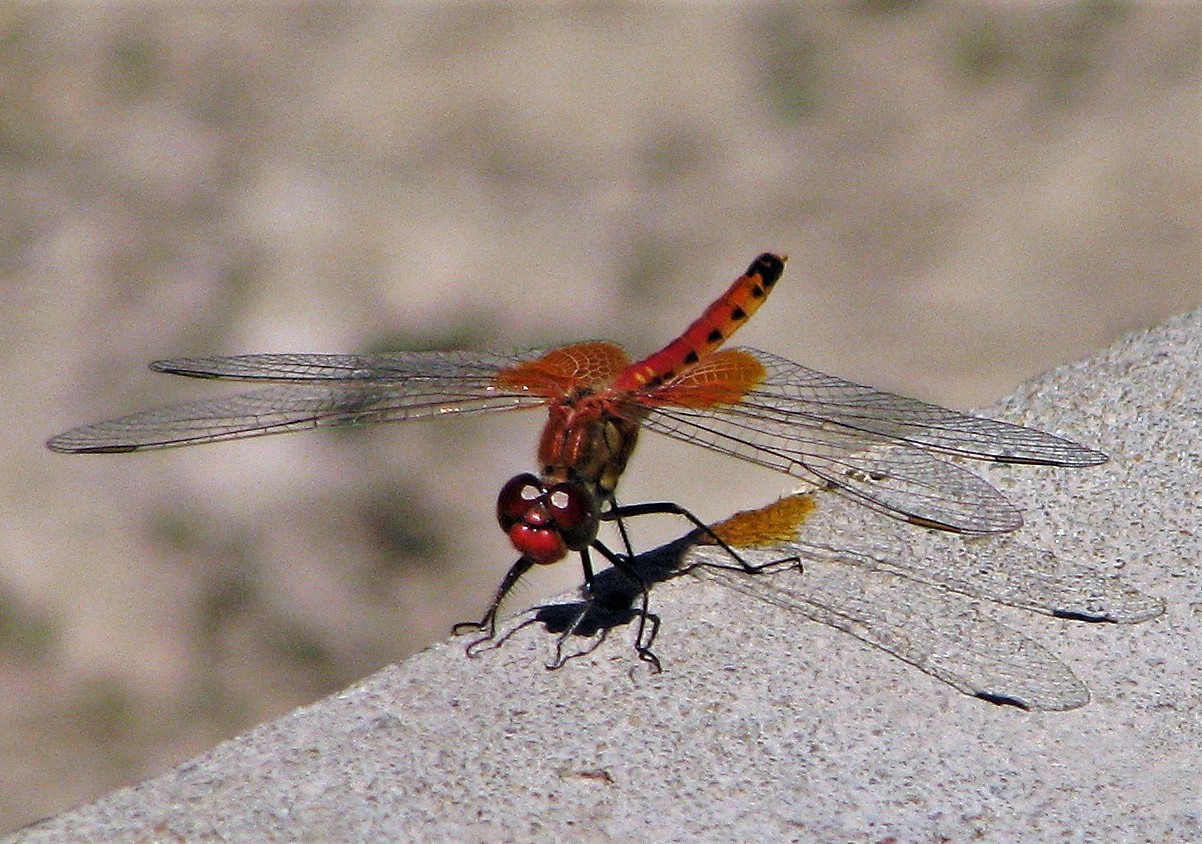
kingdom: Animalia
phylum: Arthropoda
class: Insecta
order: Odonata
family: Libellulidae
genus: Erythrodiplax
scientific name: Erythrodiplax corallina
